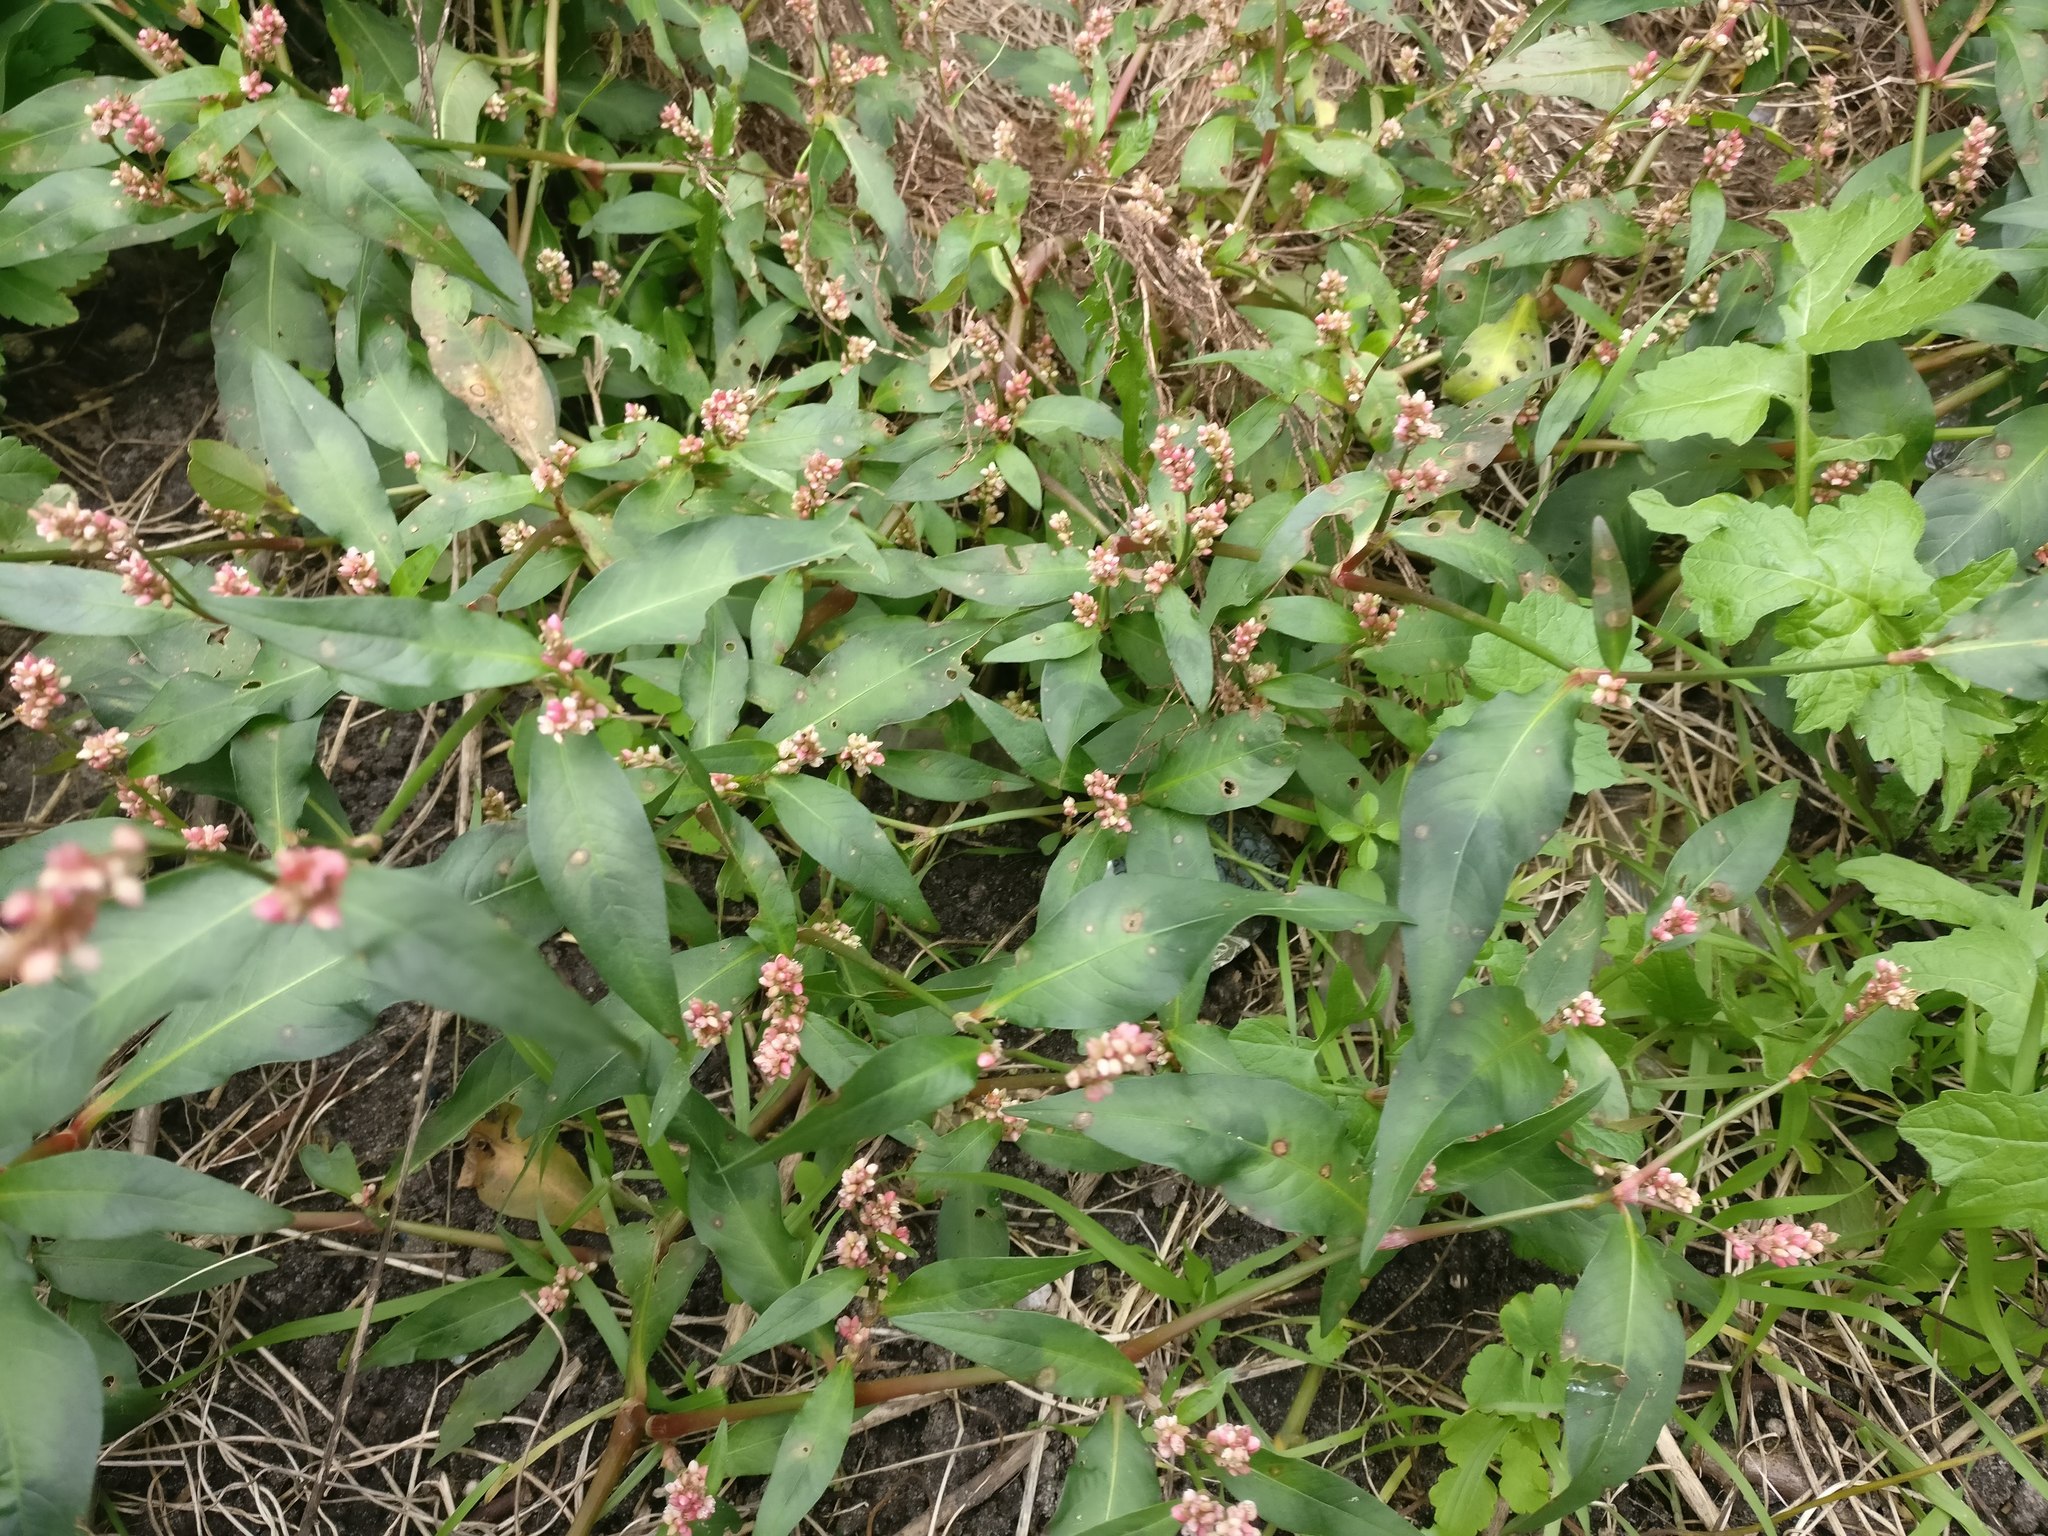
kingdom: Plantae
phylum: Tracheophyta
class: Magnoliopsida
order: Caryophyllales
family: Polygonaceae
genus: Persicaria
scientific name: Persicaria maculosa
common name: Redshank
